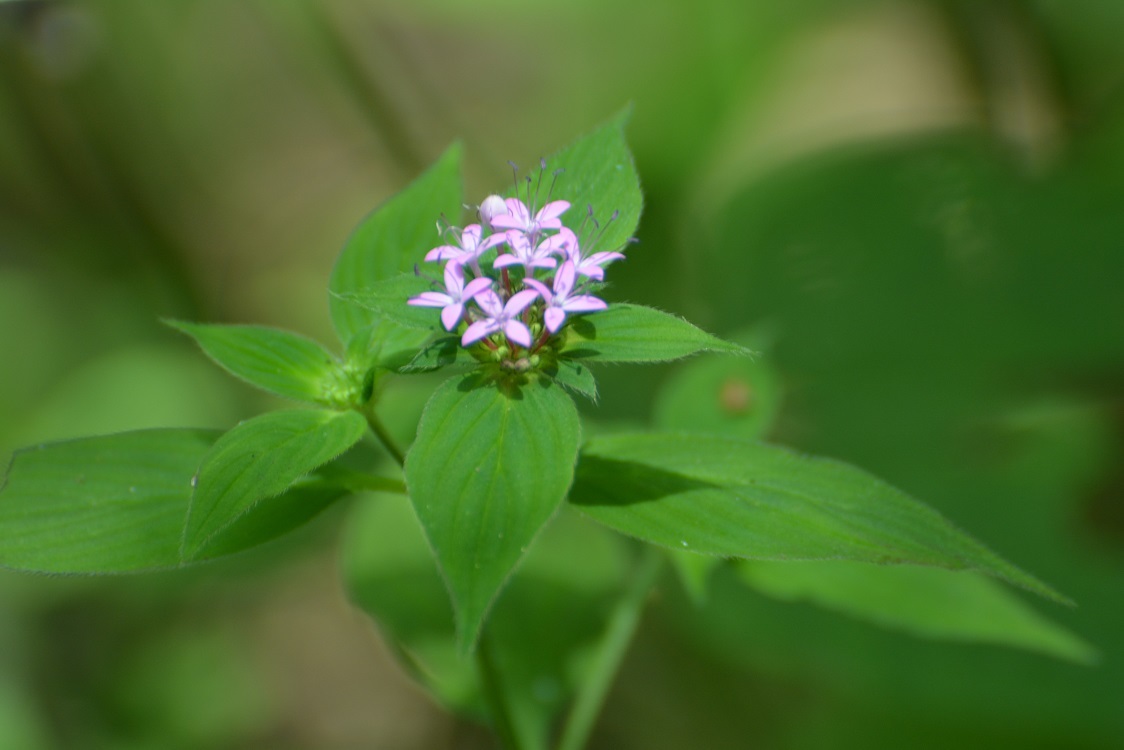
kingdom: Plantae
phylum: Tracheophyta
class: Magnoliopsida
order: Gentianales
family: Rubiaceae
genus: Crusea
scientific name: Crusea longiflora
